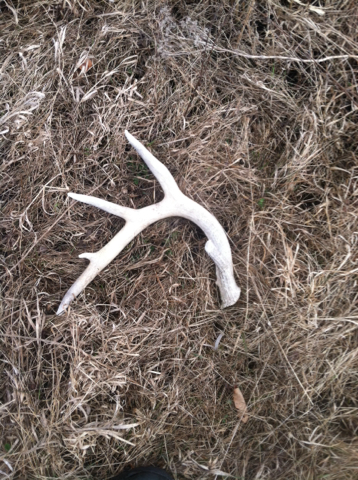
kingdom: Animalia
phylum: Chordata
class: Mammalia
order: Artiodactyla
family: Cervidae
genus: Odocoileus
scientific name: Odocoileus virginianus
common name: White-tailed deer
